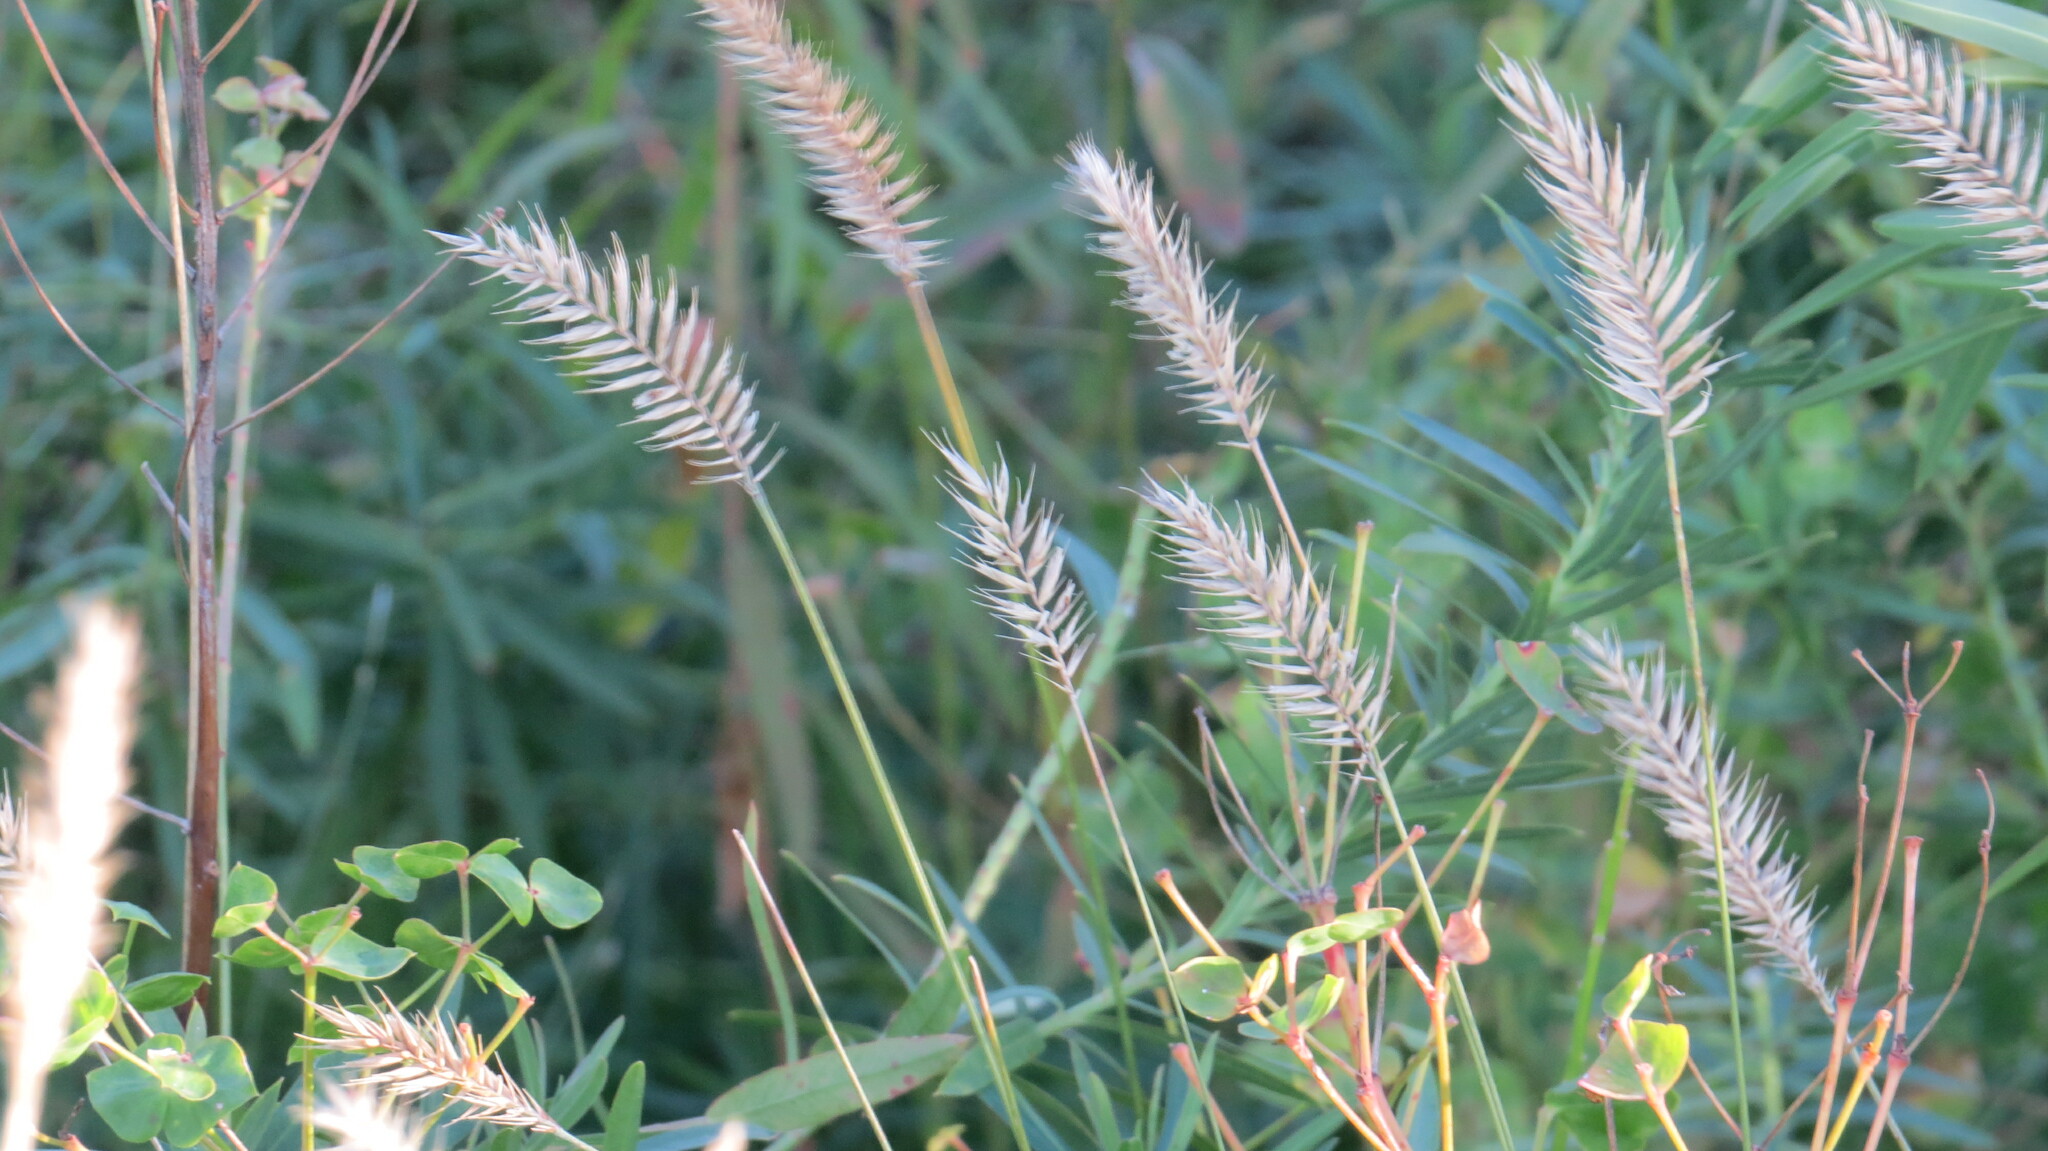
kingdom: Plantae
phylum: Tracheophyta
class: Liliopsida
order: Poales
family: Poaceae
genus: Agropyron
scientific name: Agropyron cristatum
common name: Crested wheatgrass
